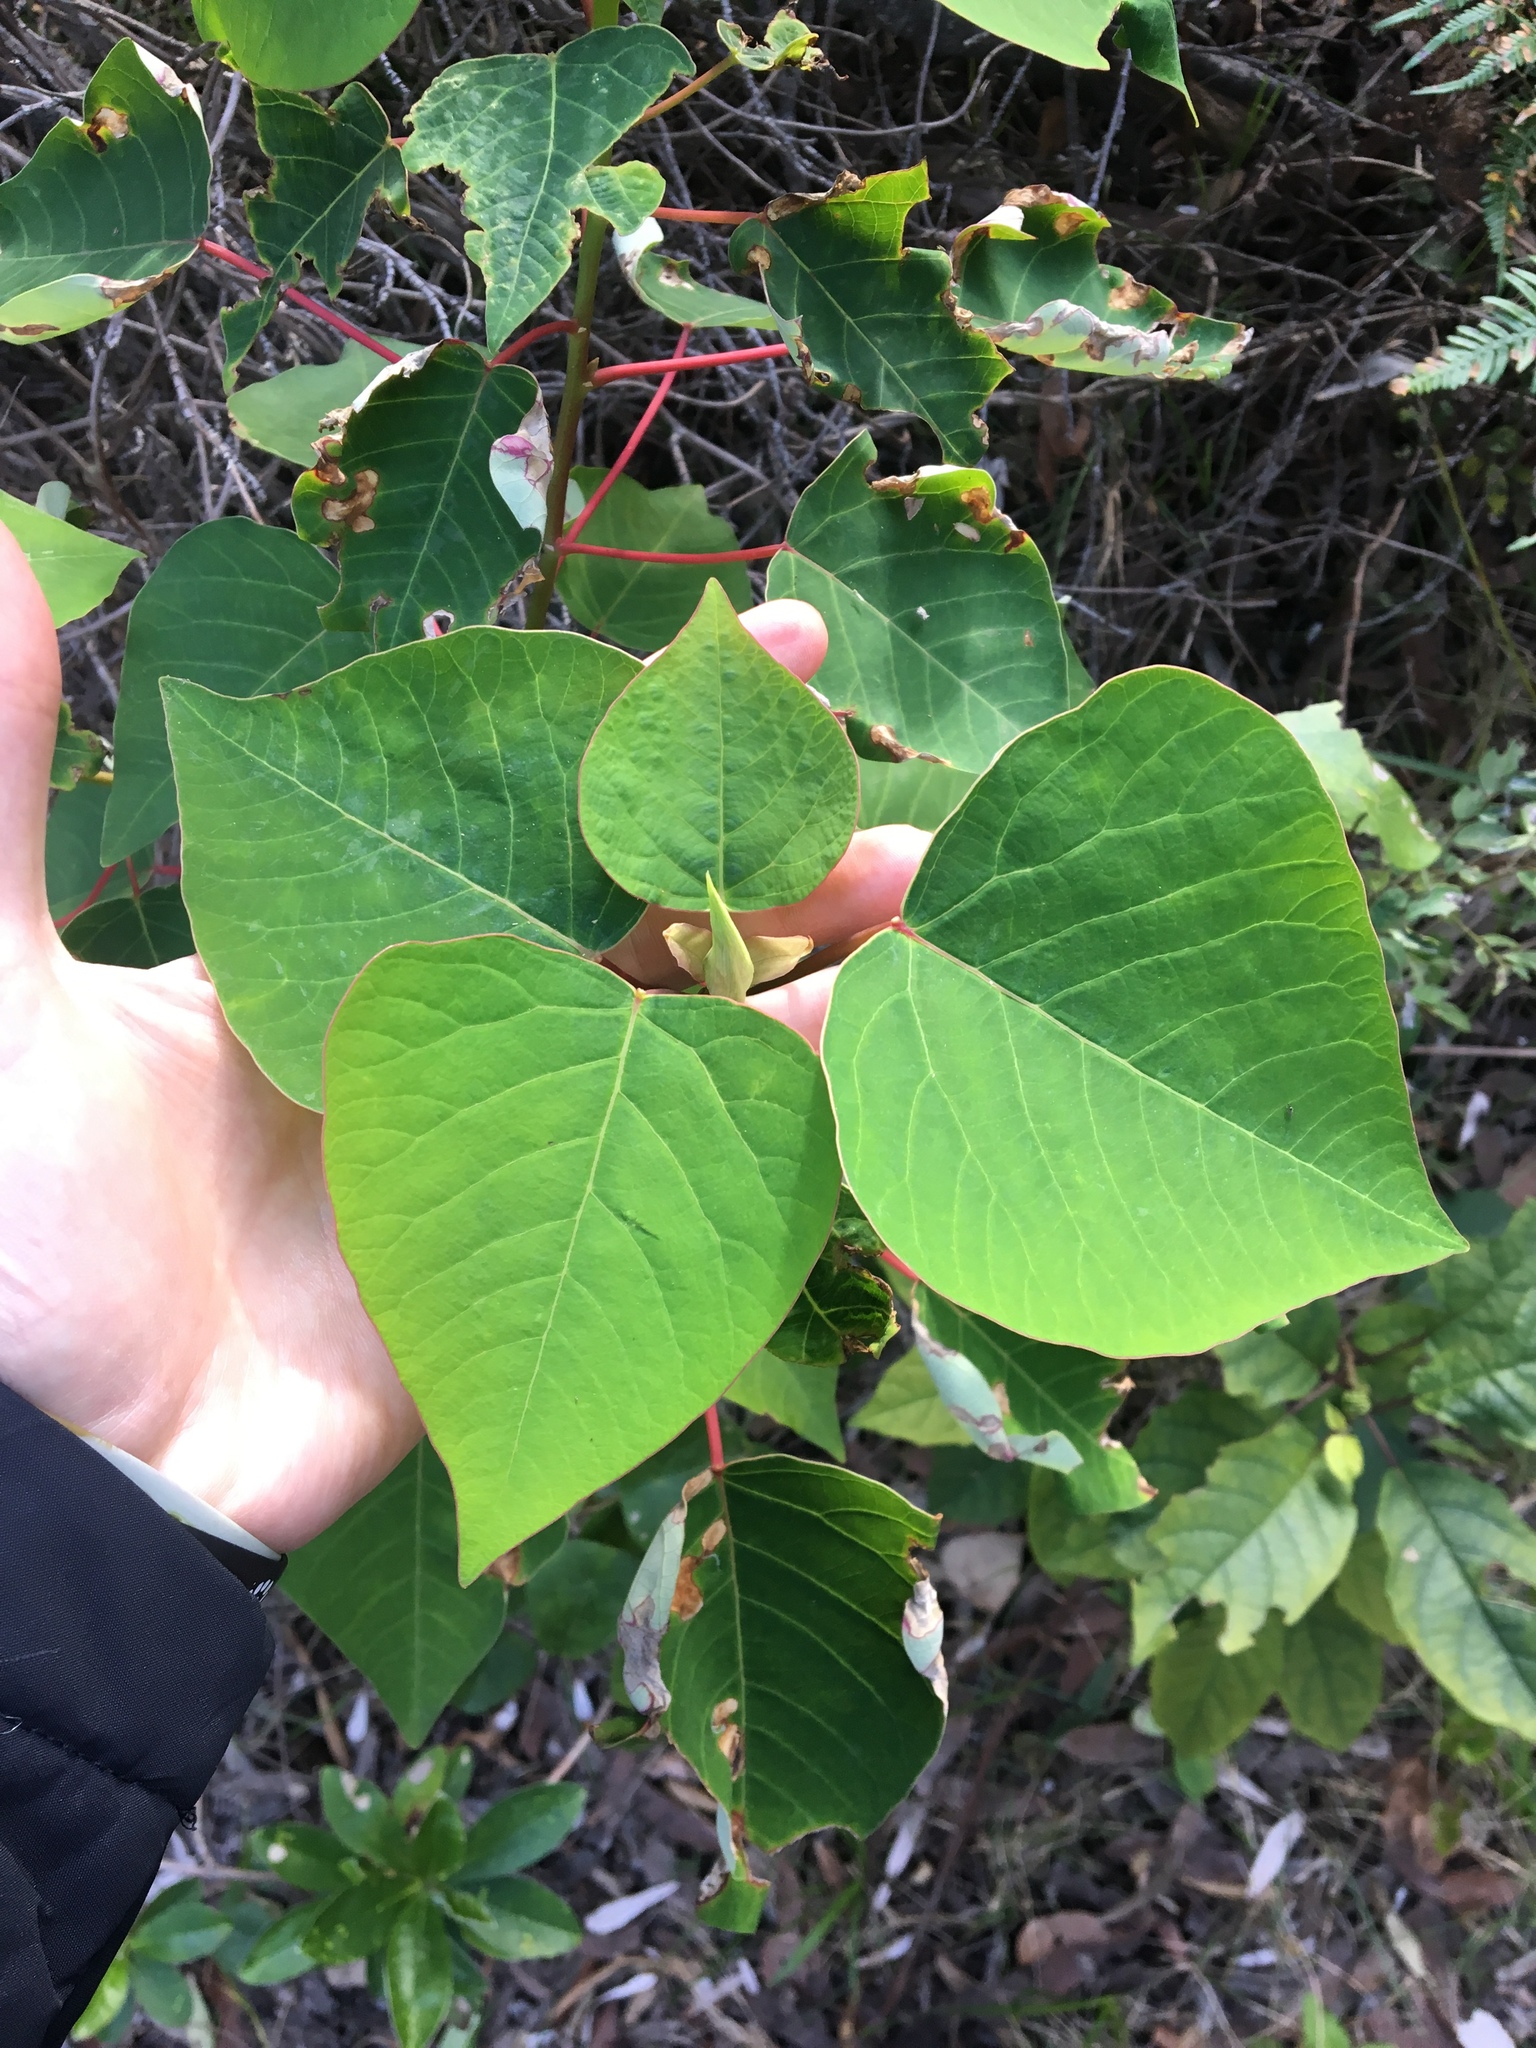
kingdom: Plantae
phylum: Tracheophyta
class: Magnoliopsida
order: Malpighiales
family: Euphorbiaceae
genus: Homalanthus
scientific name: Homalanthus populifolius
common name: Queensland poplar
